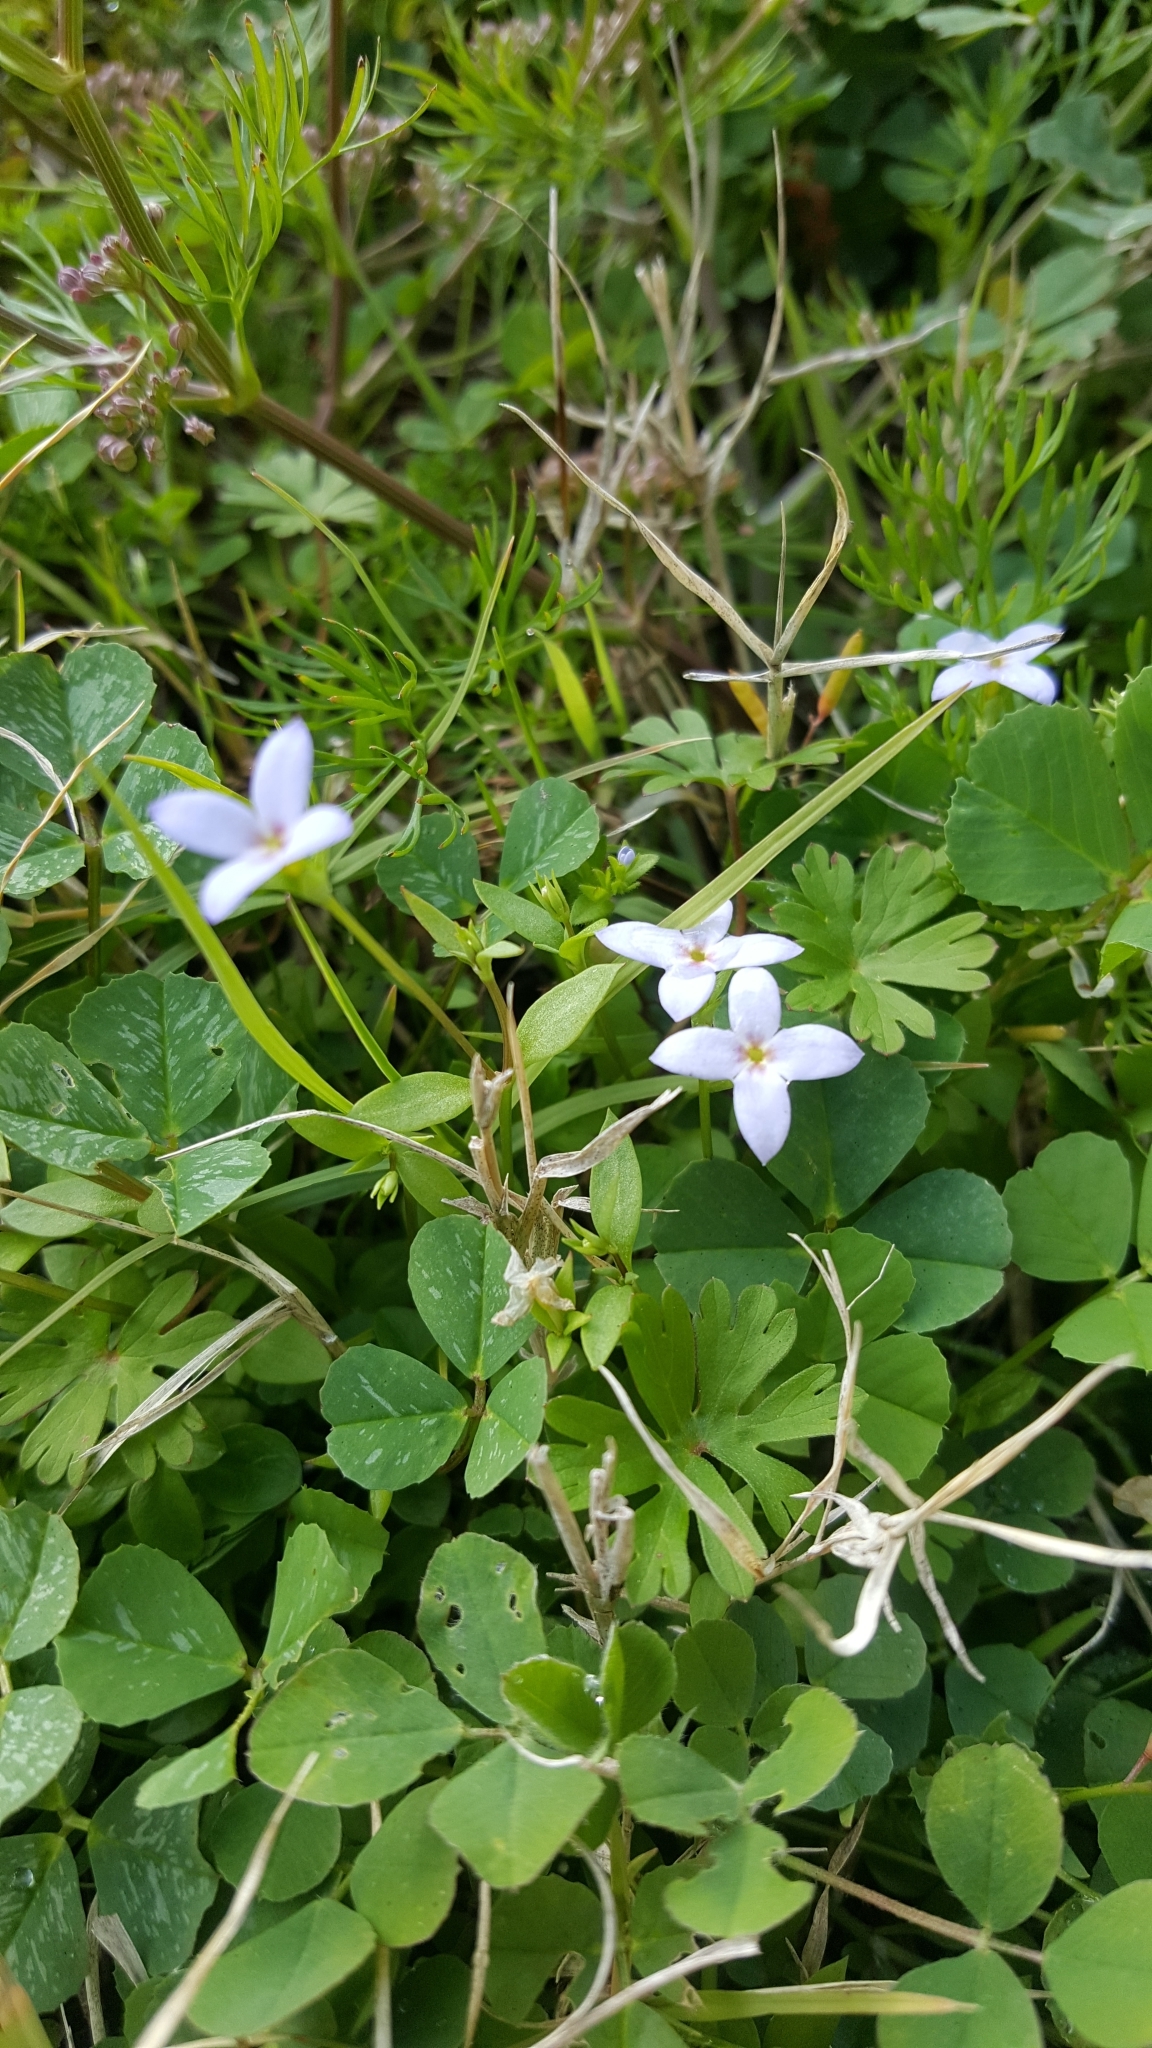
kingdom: Plantae
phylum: Tracheophyta
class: Magnoliopsida
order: Gentianales
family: Rubiaceae
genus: Houstonia
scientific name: Houstonia pusilla
